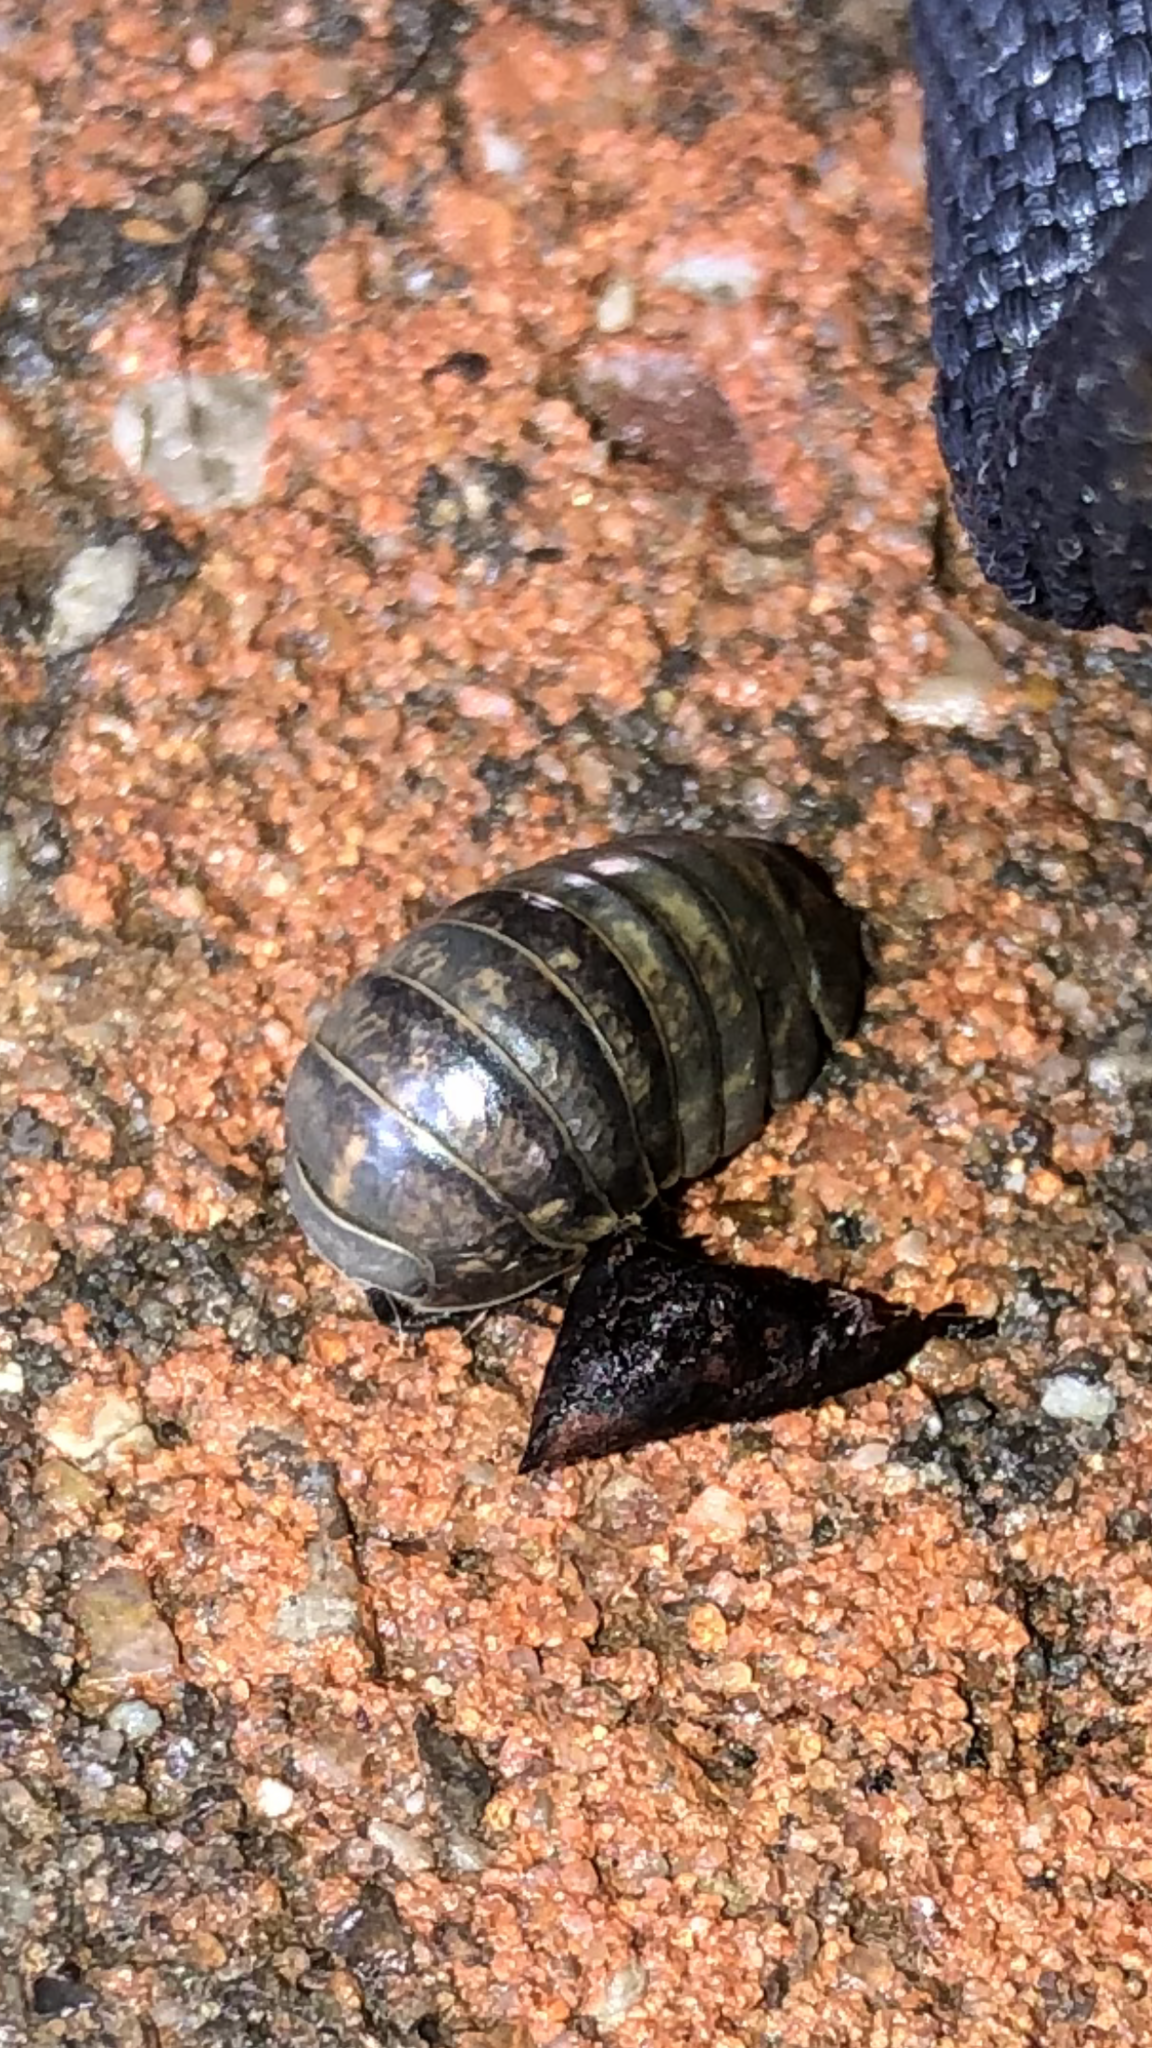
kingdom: Animalia
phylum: Arthropoda
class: Malacostraca
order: Isopoda
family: Armadillidiidae
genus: Armadillidium
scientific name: Armadillidium vulgare
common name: Common pill woodlouse
